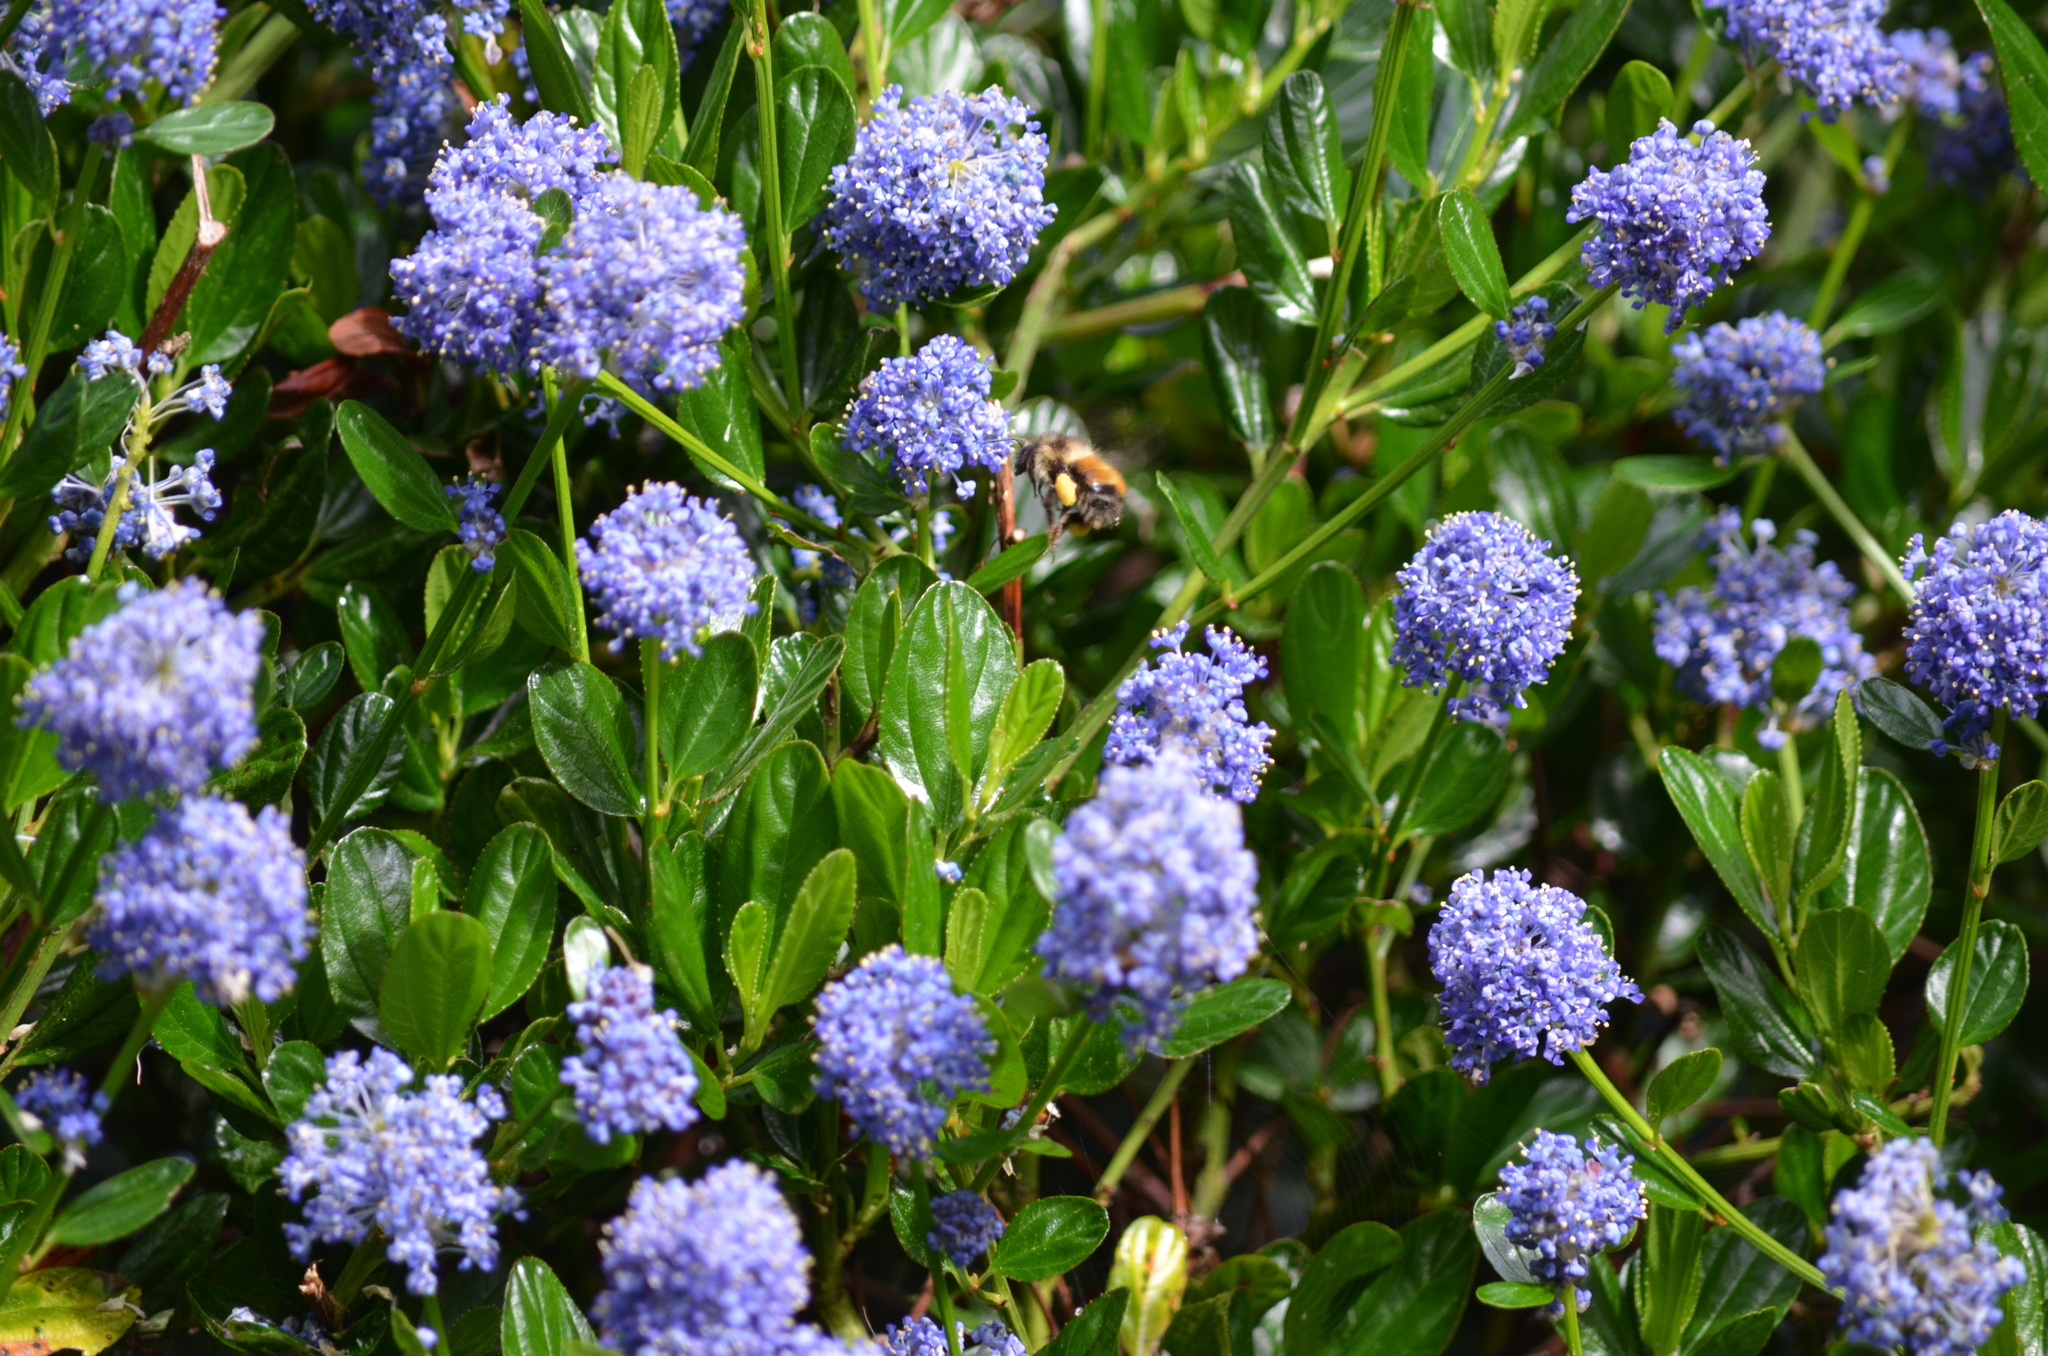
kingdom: Animalia
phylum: Arthropoda
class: Insecta
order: Hymenoptera
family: Apidae
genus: Bombus
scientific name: Bombus melanopygus
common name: Black tail bumble bee
